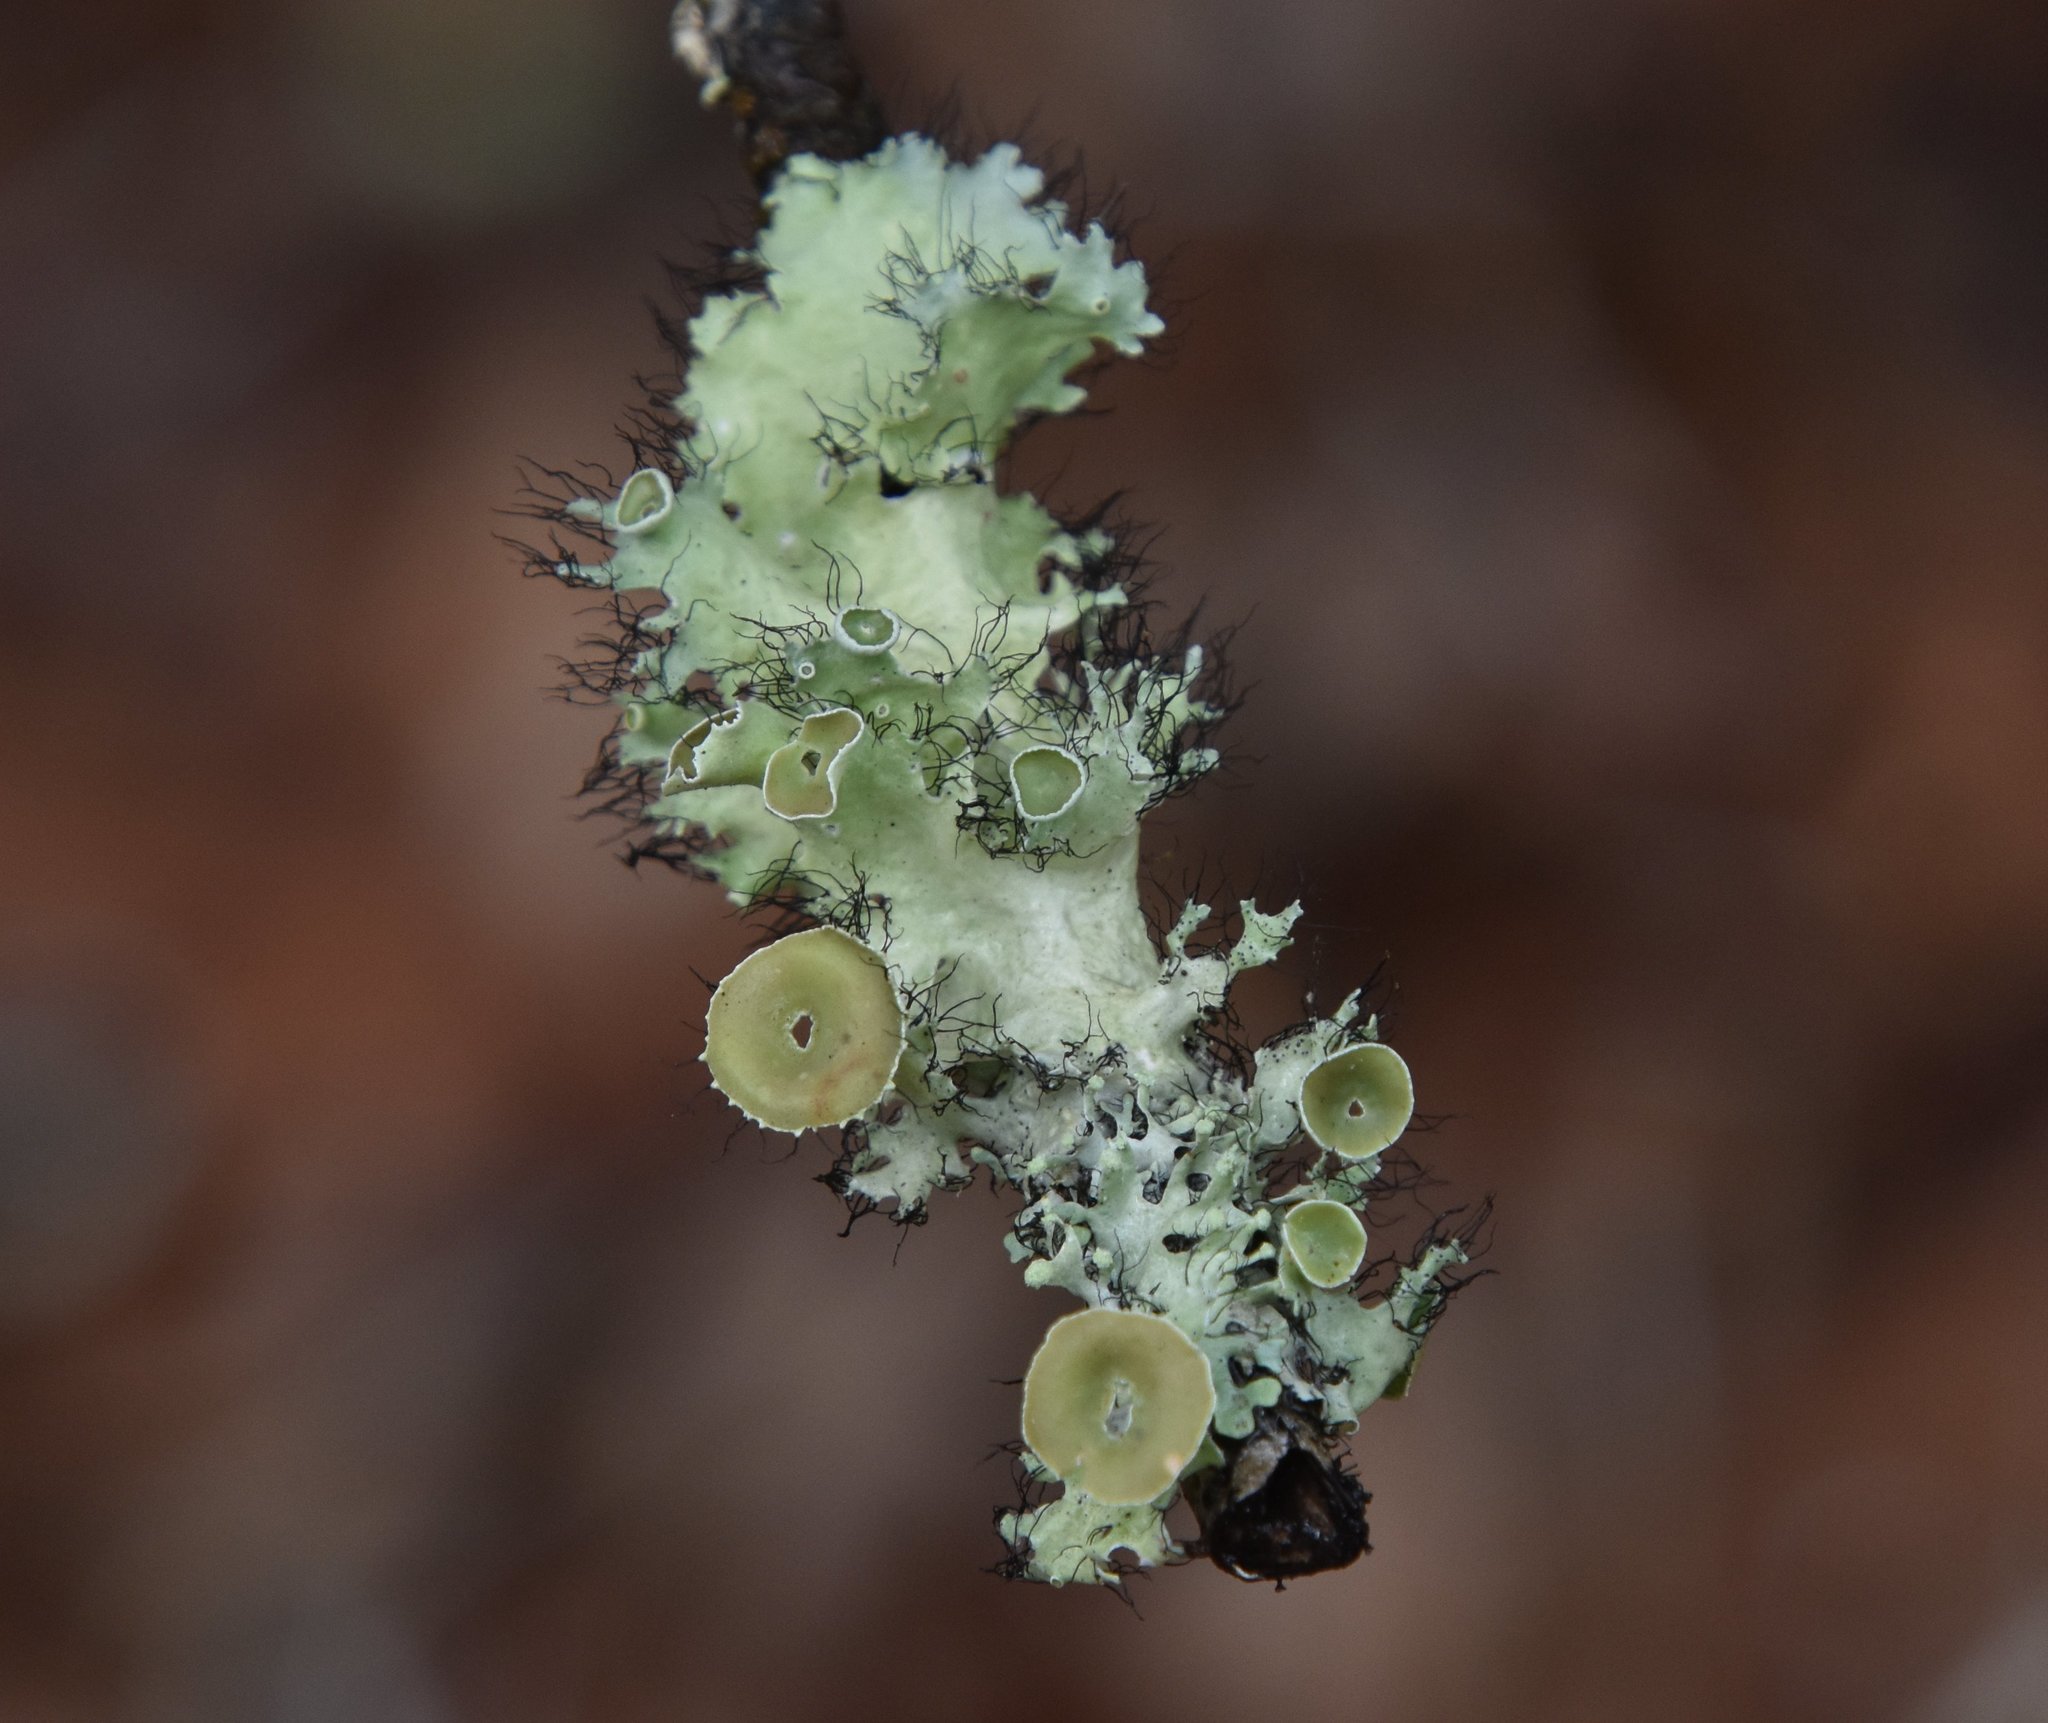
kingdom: Fungi
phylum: Ascomycota
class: Lecanoromycetes
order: Lecanorales
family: Parmeliaceae
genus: Parmotrema
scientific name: Parmotrema perforatum
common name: Perforated ruffle lichen
